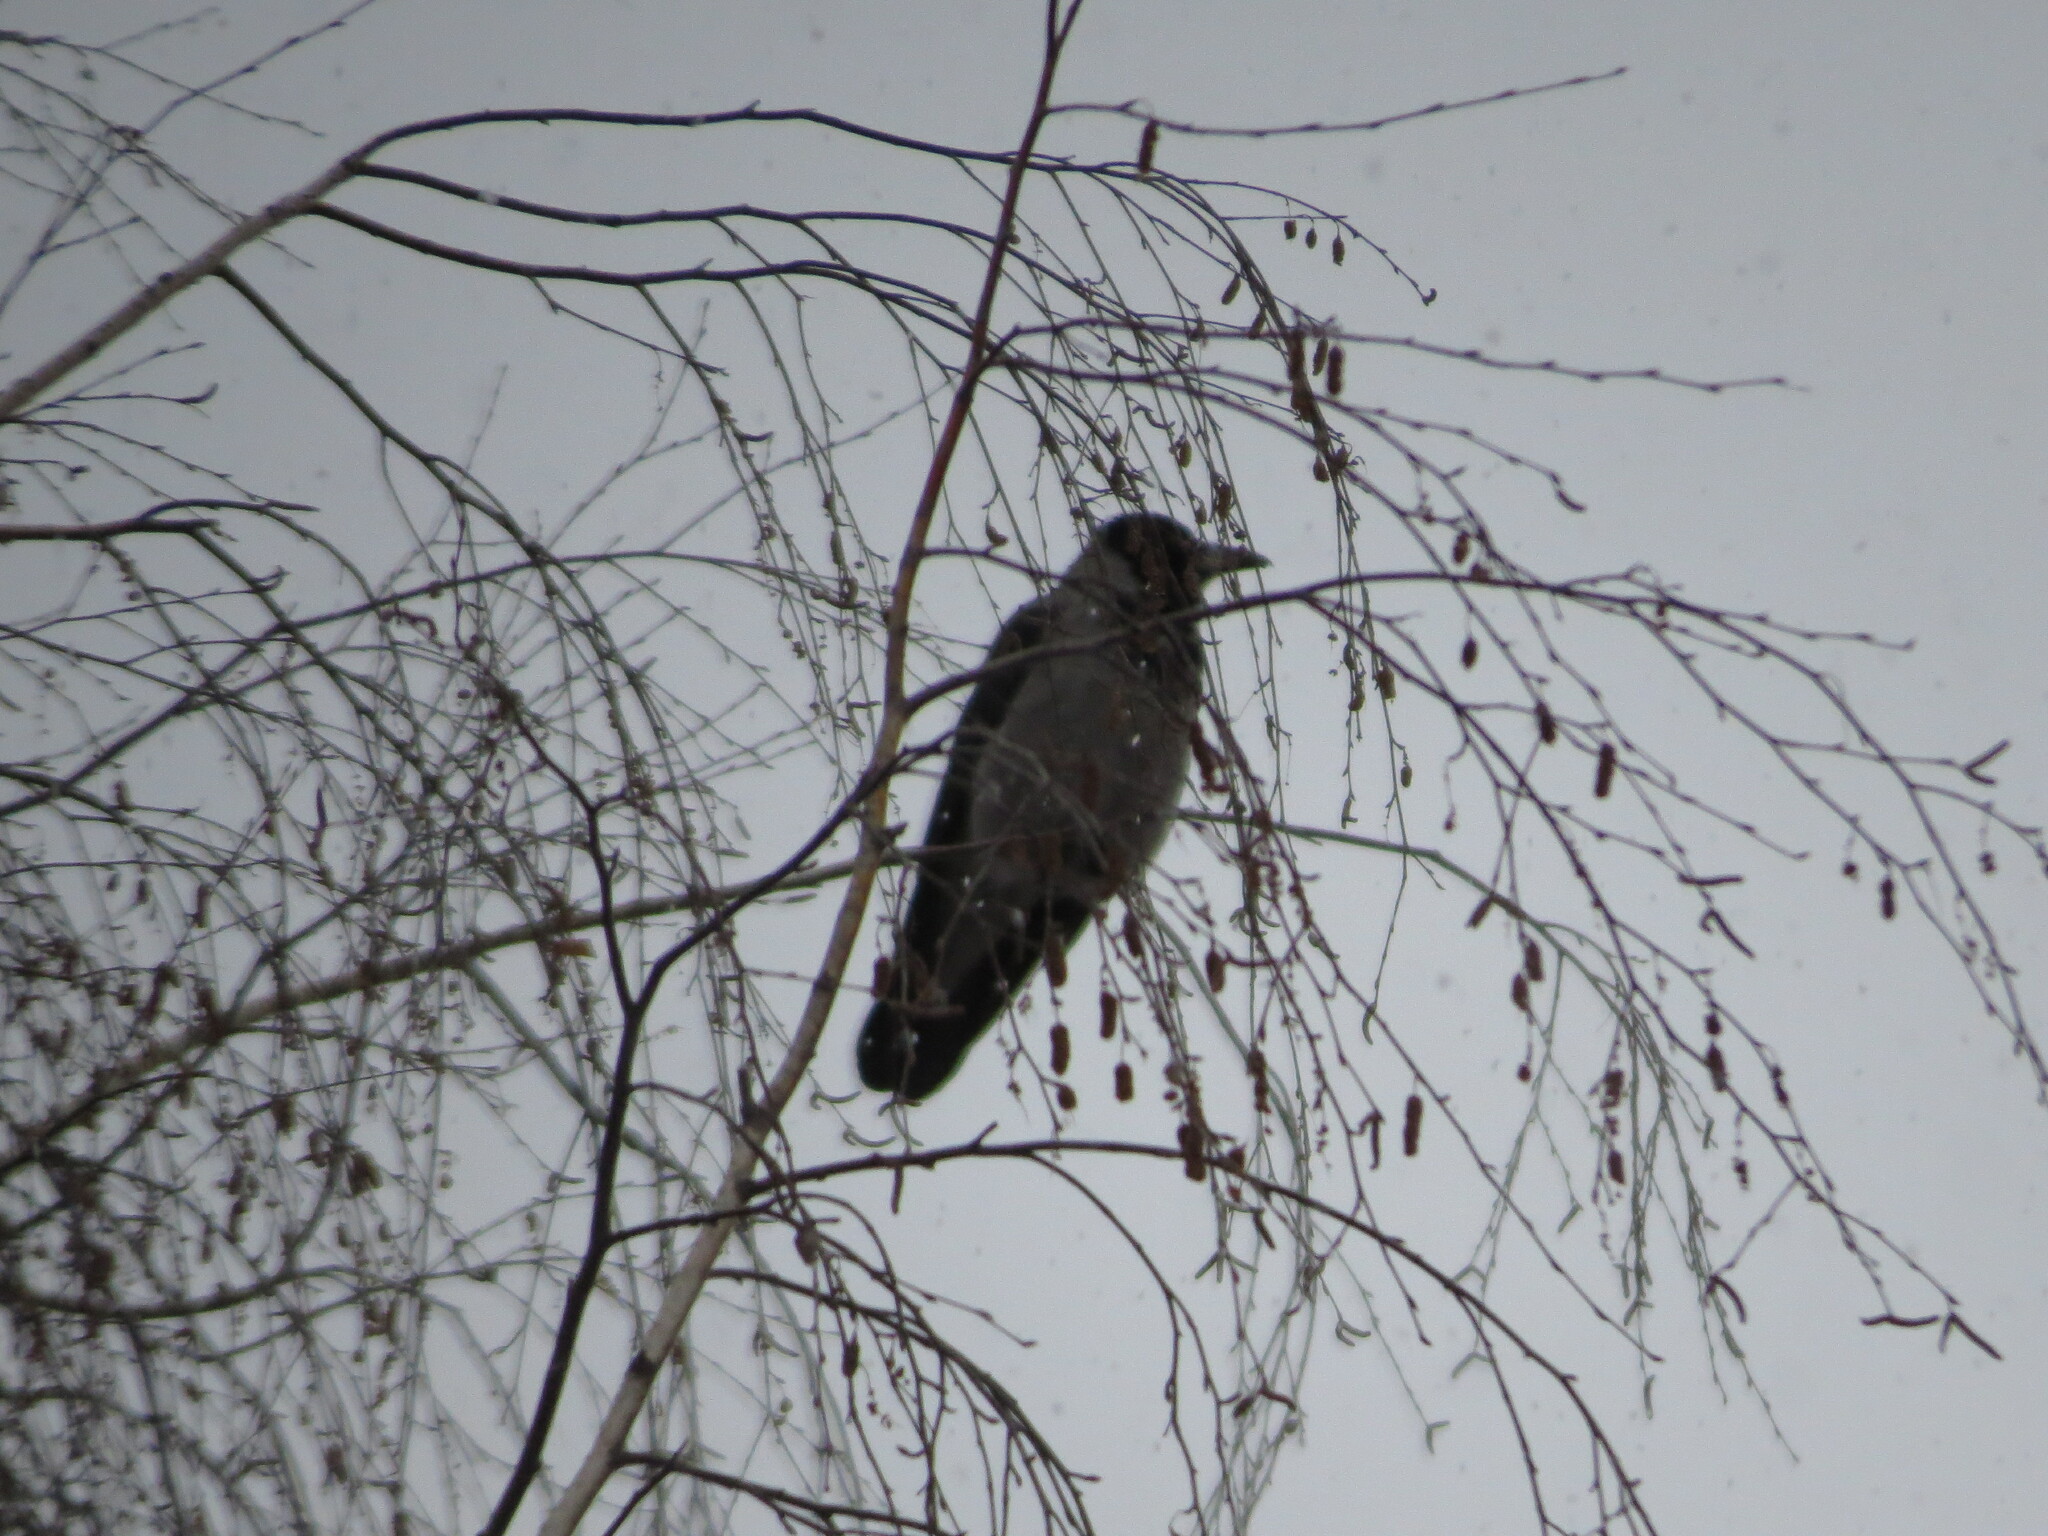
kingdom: Animalia
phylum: Chordata
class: Aves
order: Passeriformes
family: Corvidae
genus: Corvus
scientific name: Corvus cornix
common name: Hooded crow
